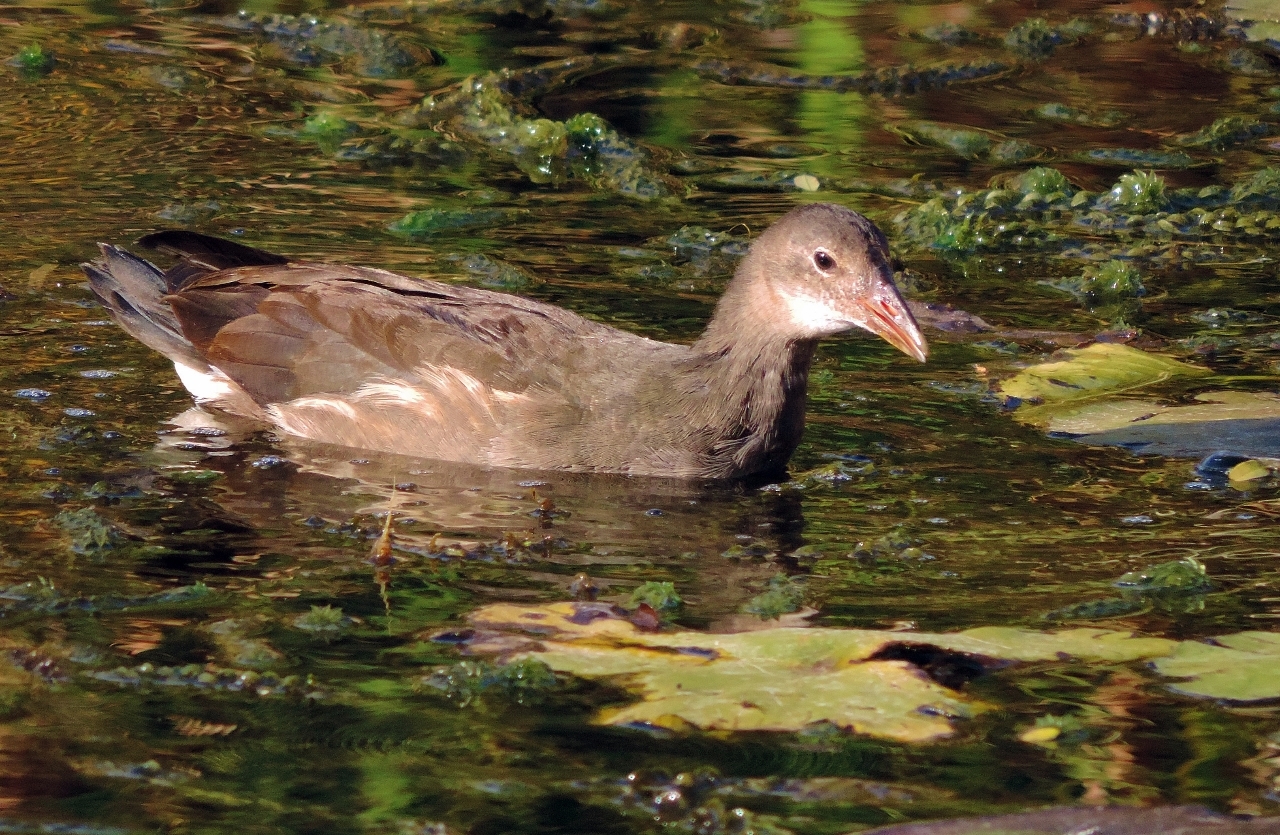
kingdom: Animalia
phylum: Chordata
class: Aves
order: Gruiformes
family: Rallidae
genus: Gallinula
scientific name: Gallinula chloropus
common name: Common moorhen
